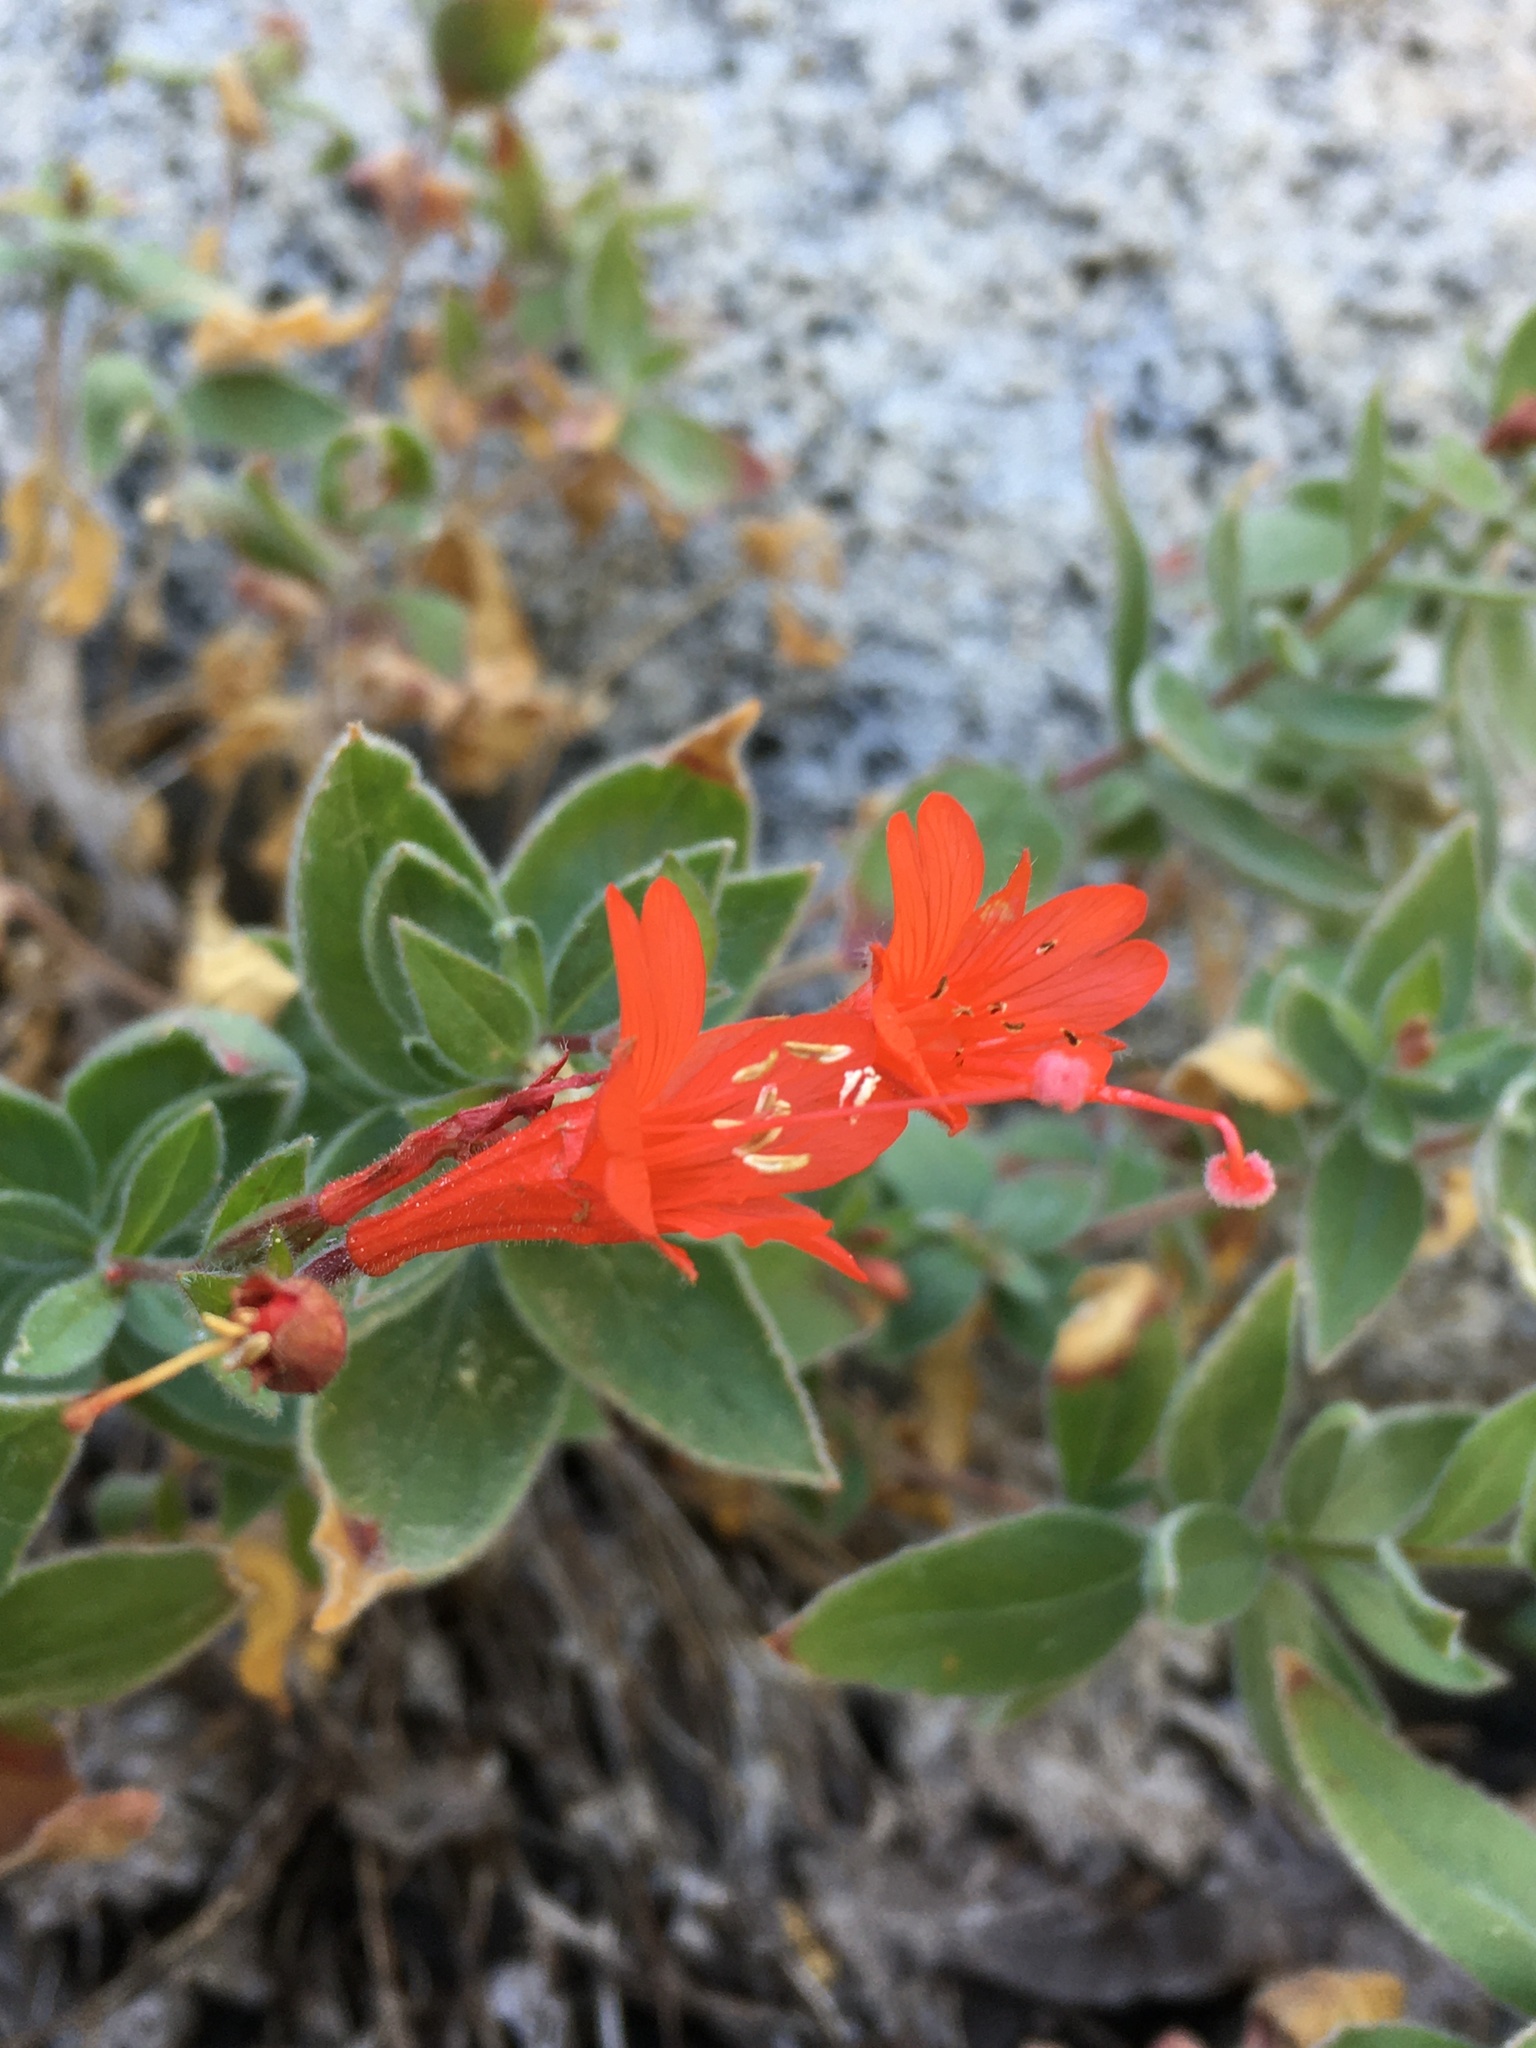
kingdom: Plantae
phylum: Tracheophyta
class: Magnoliopsida
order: Myrtales
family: Onagraceae
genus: Epilobium
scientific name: Epilobium canum
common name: California-fuchsia
